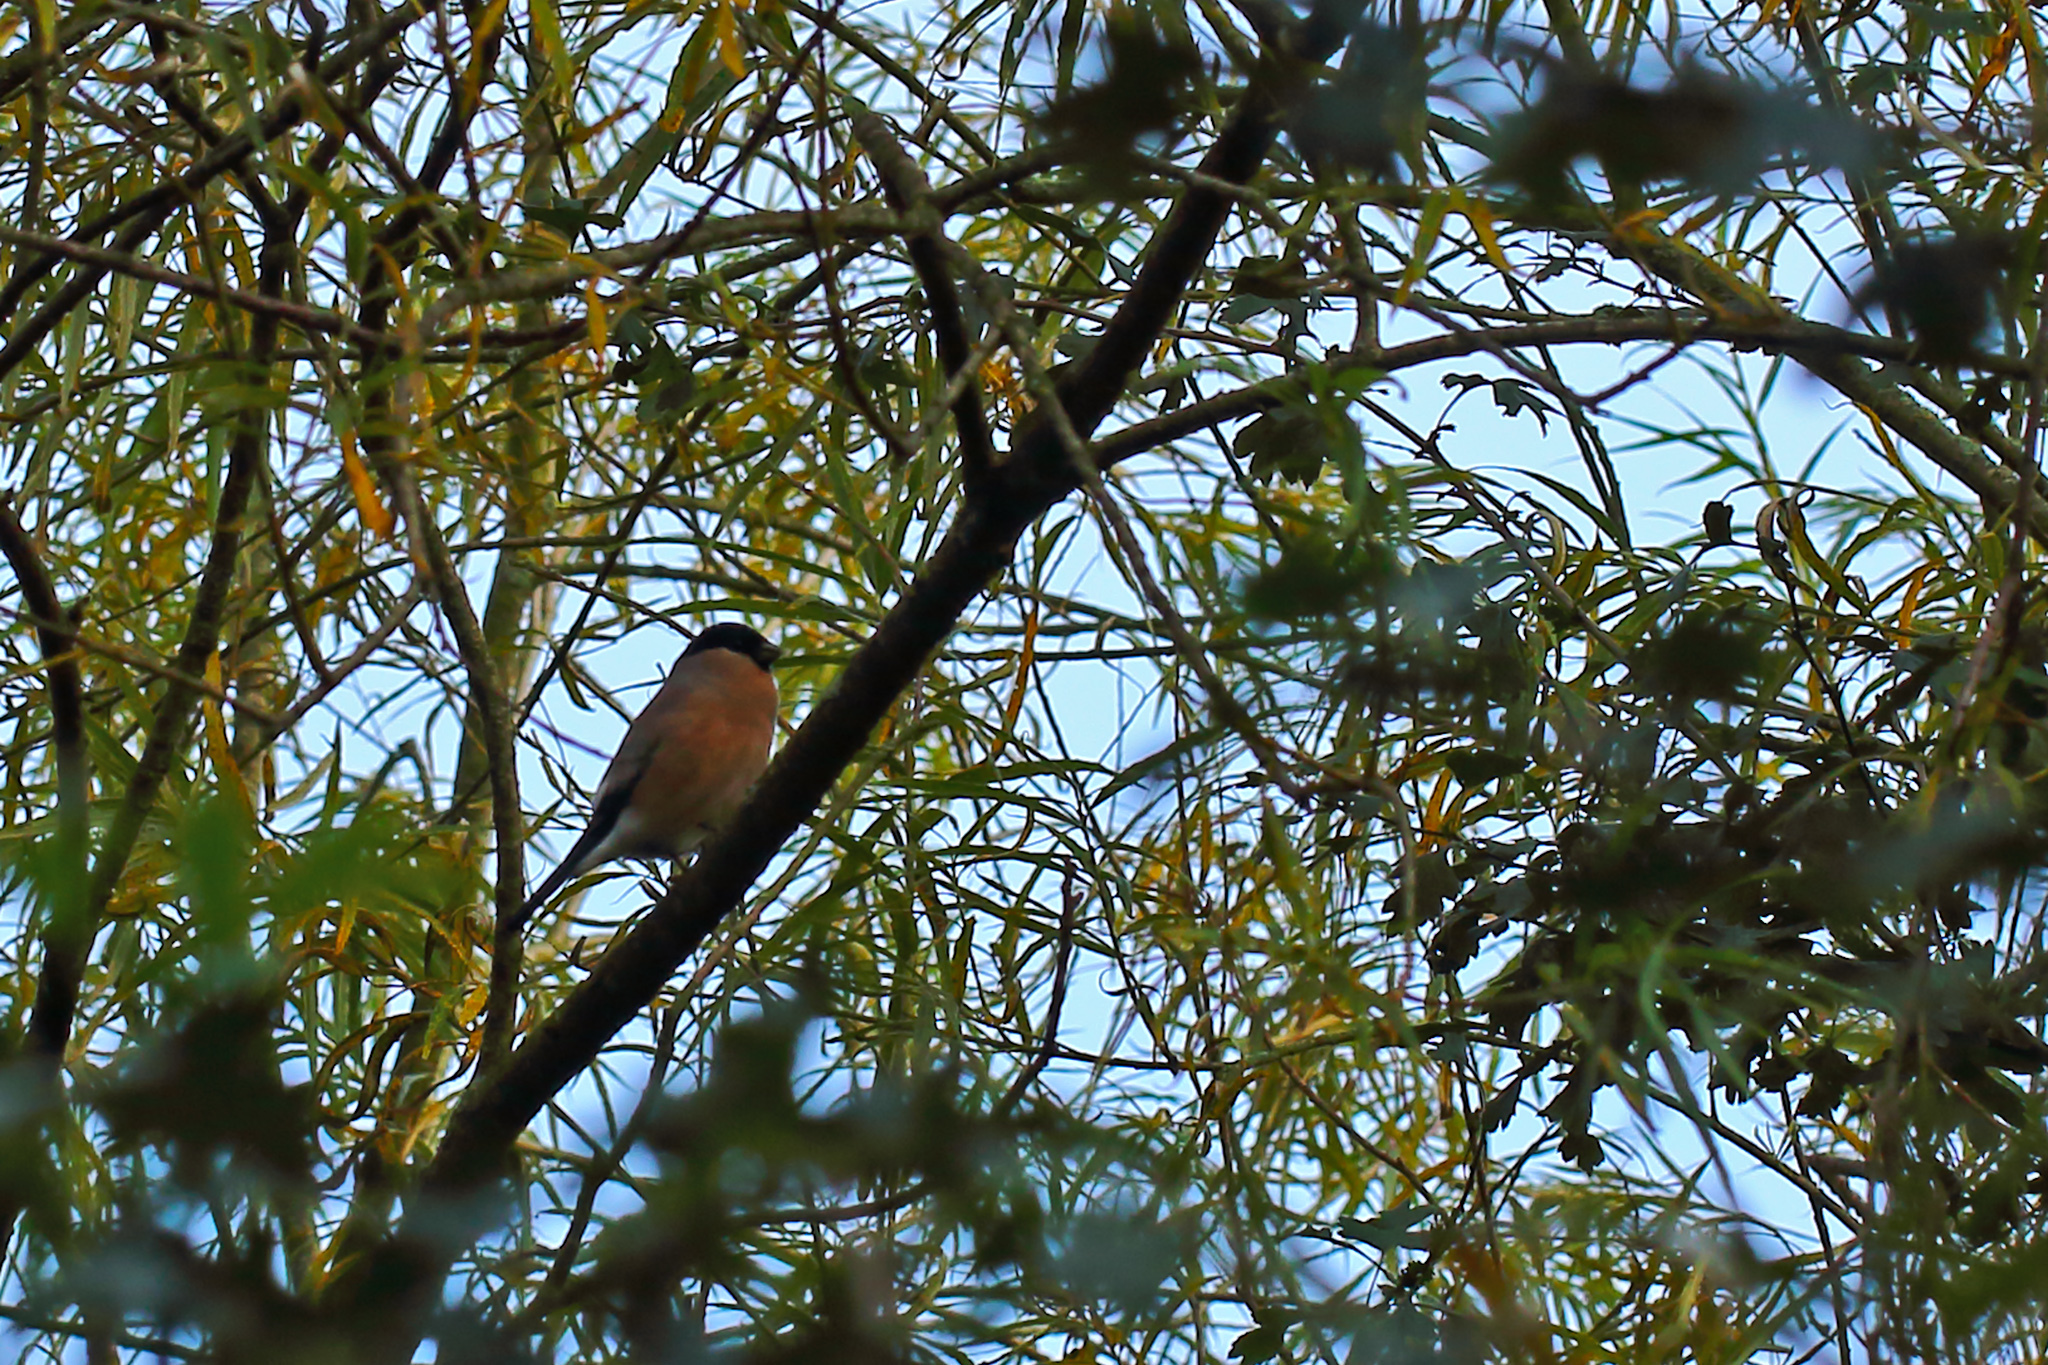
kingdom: Animalia
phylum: Chordata
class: Aves
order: Passeriformes
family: Fringillidae
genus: Pyrrhula
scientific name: Pyrrhula pyrrhula
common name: Eurasian bullfinch
